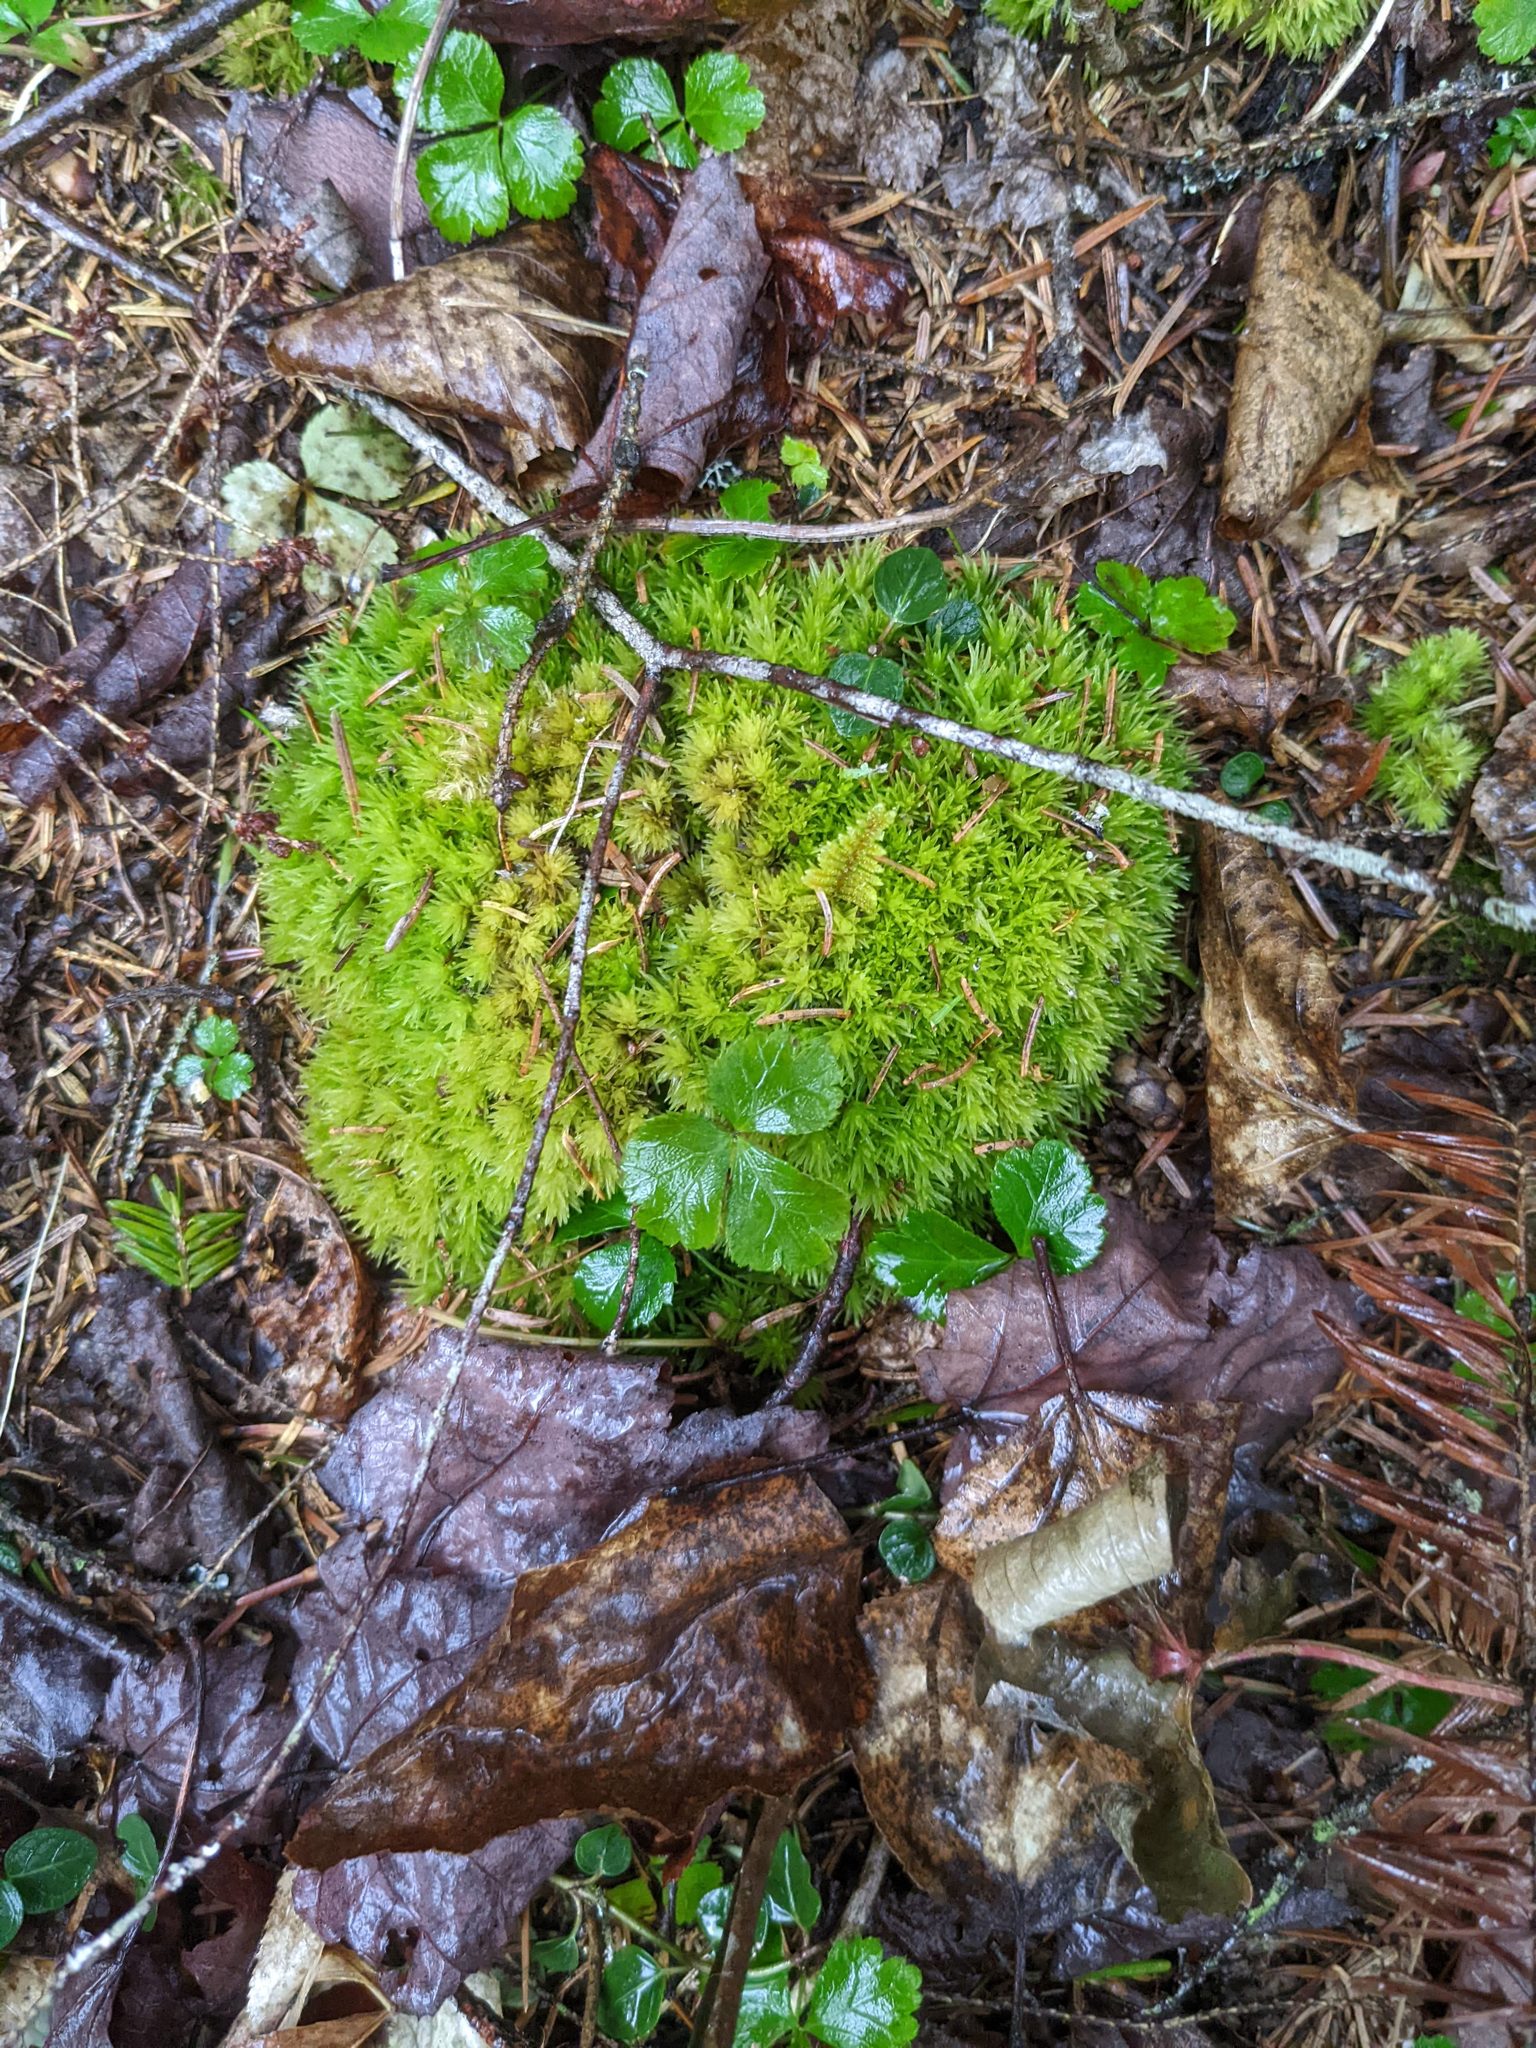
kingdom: Plantae
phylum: Tracheophyta
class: Magnoliopsida
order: Ranunculales
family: Ranunculaceae
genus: Coptis
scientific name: Coptis trifolia
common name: Canker-root
